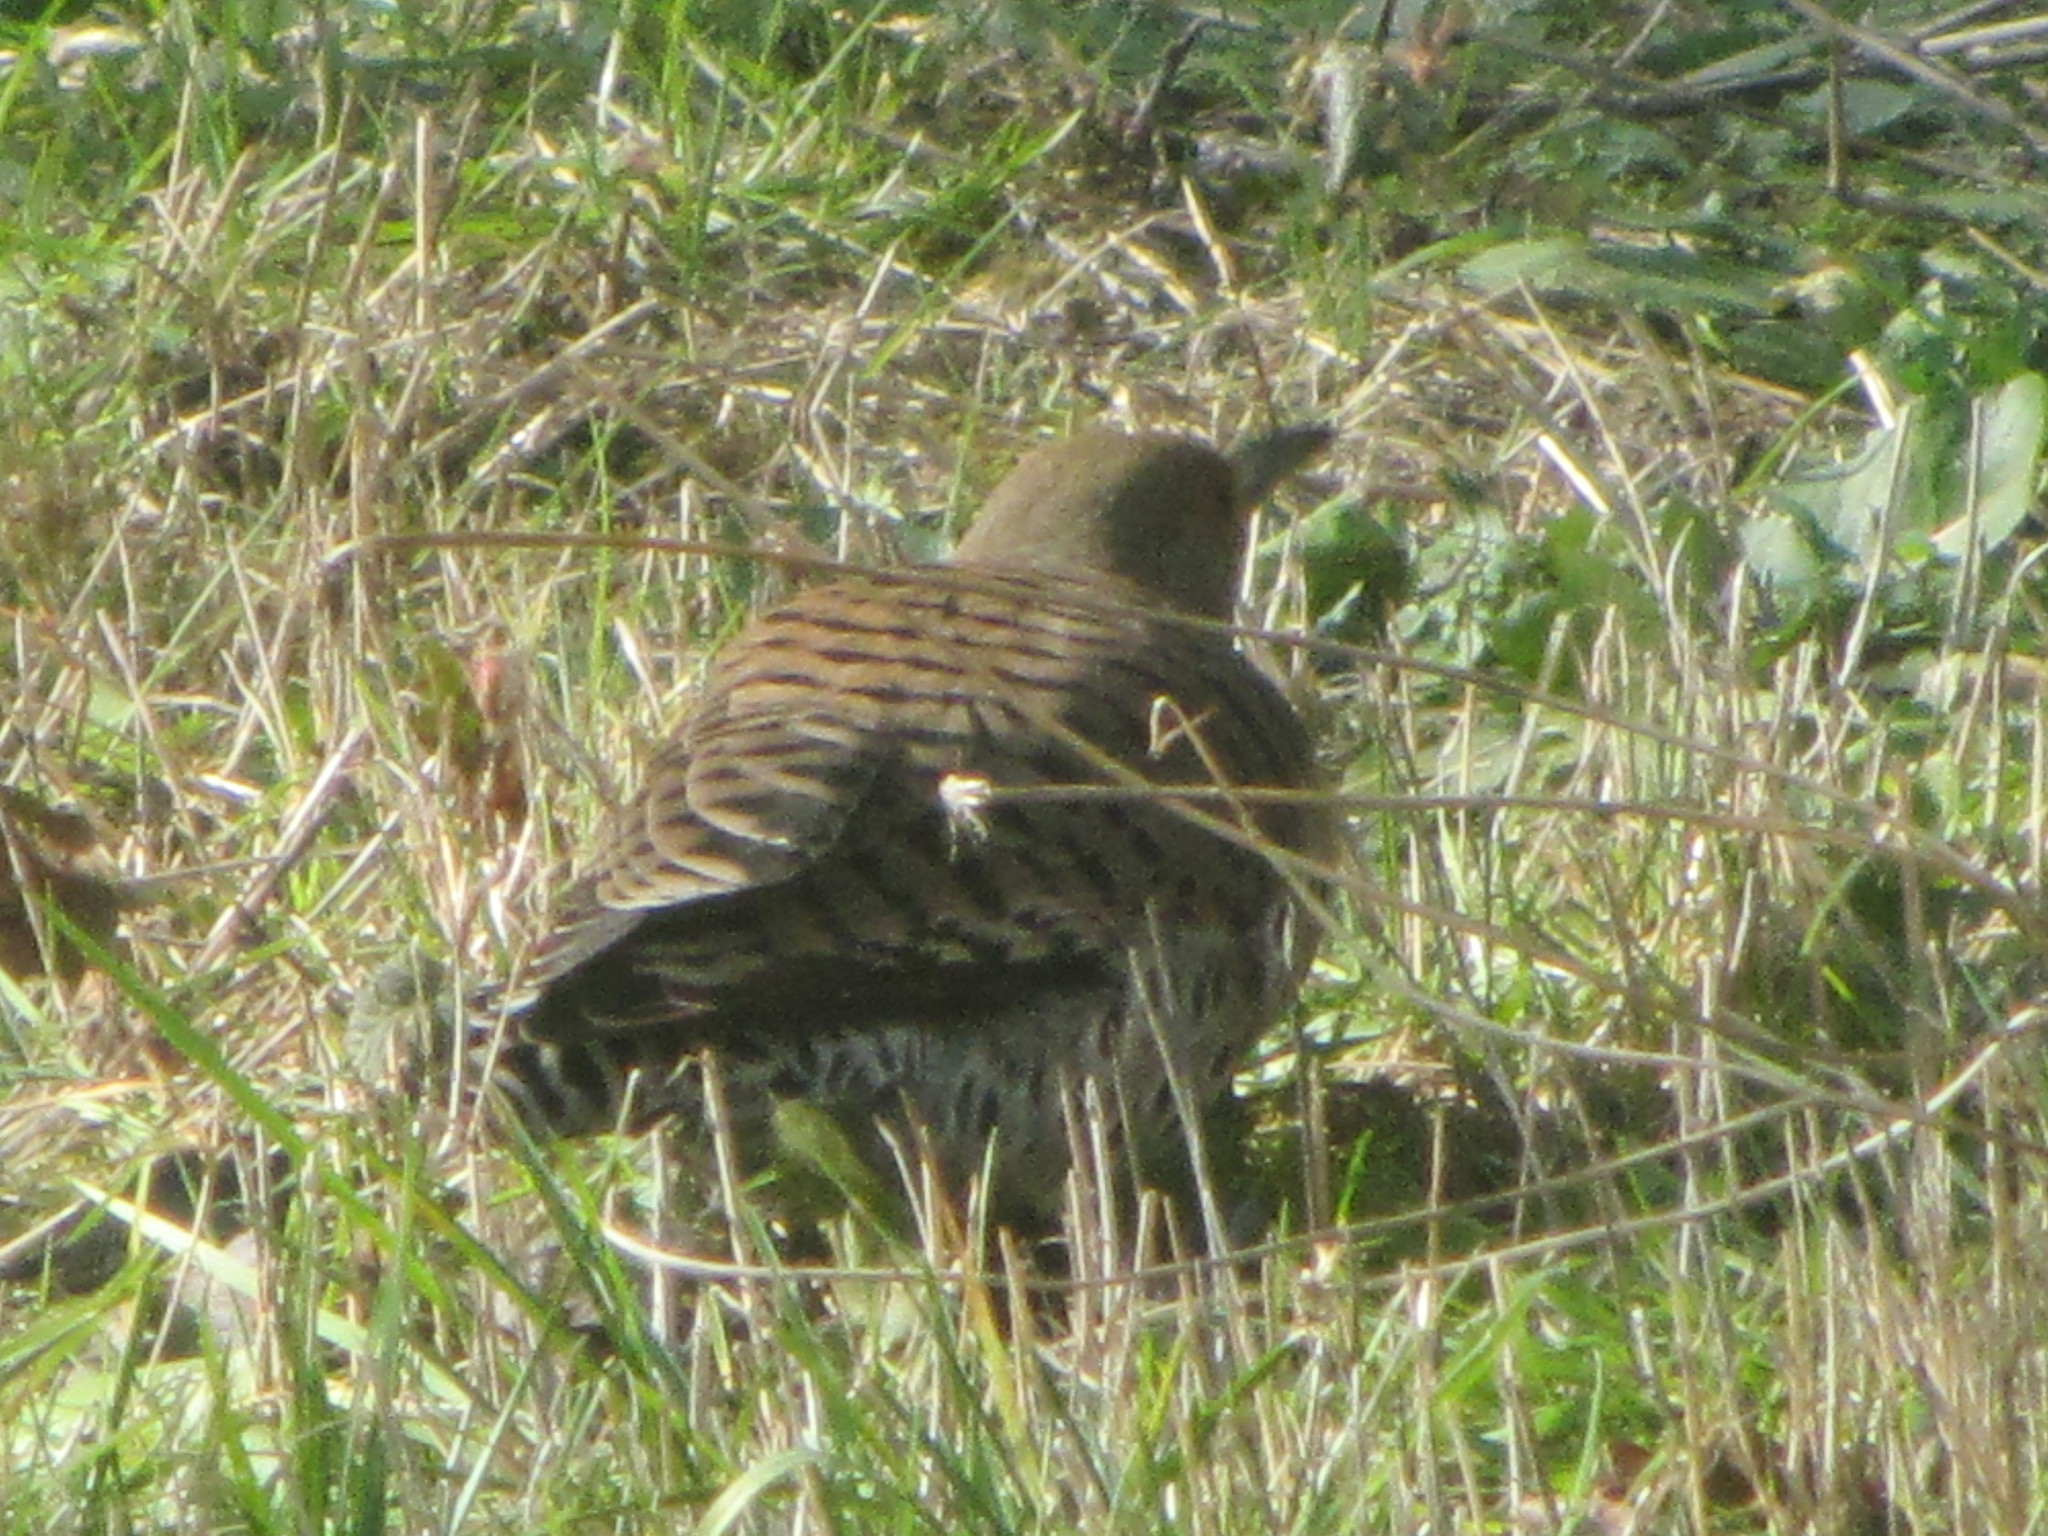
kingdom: Animalia
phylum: Chordata
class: Aves
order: Piciformes
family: Picidae
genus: Colaptes
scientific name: Colaptes auratus
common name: Northern flicker
